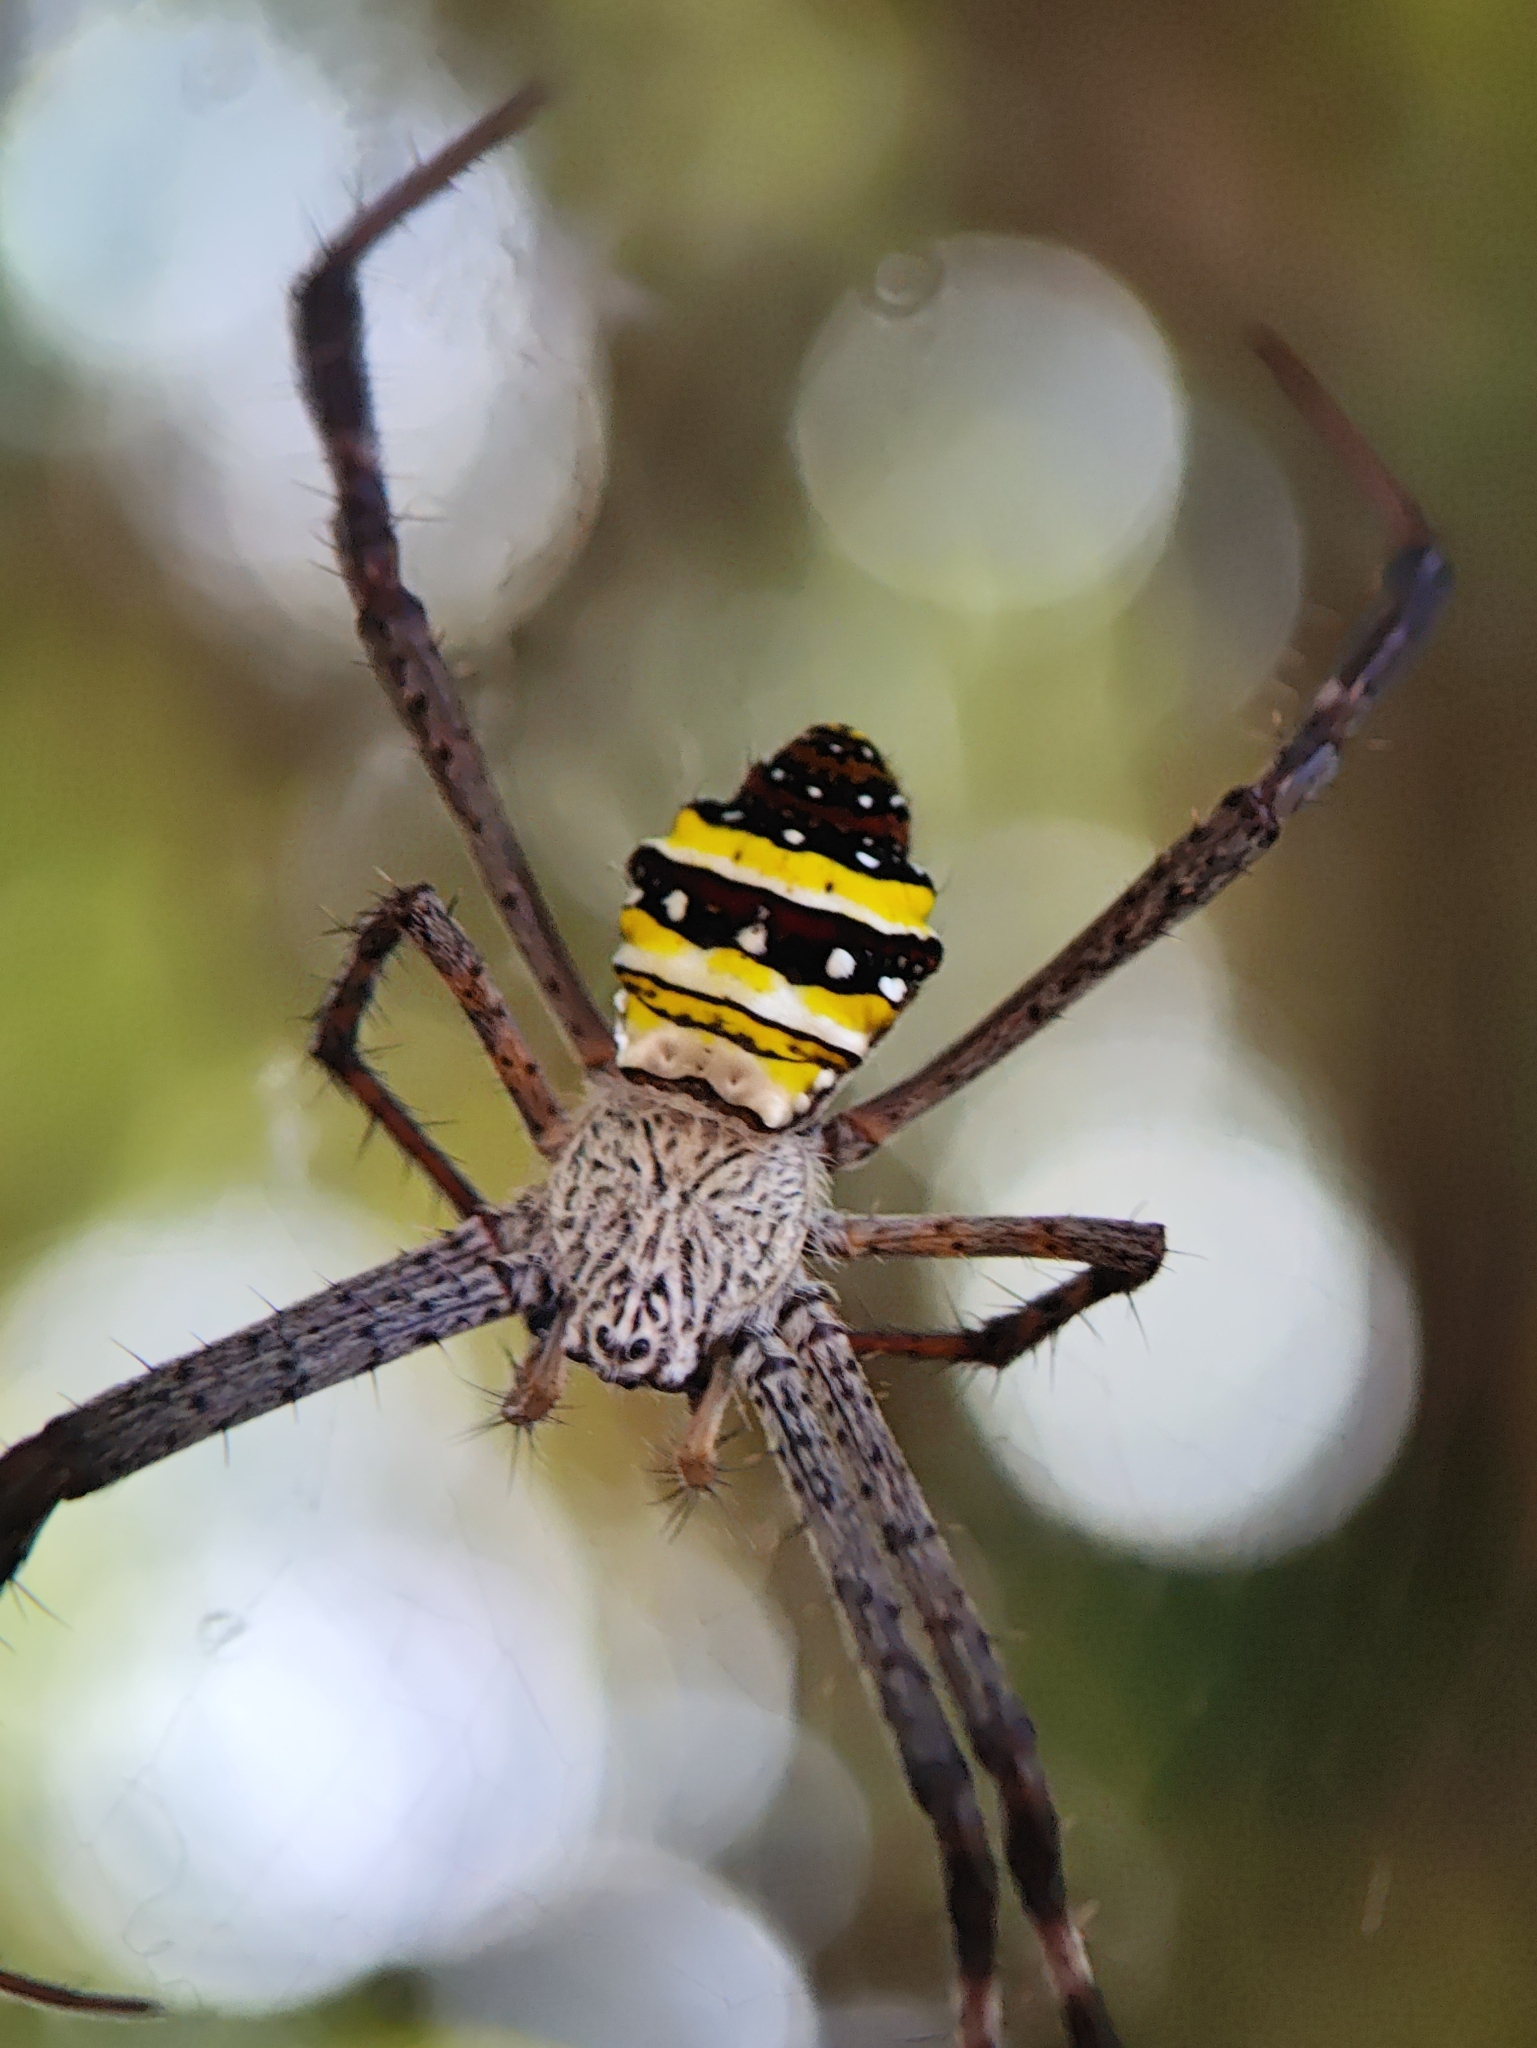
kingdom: Animalia
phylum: Arthropoda
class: Arachnida
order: Araneae
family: Araneidae
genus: Argiope
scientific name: Argiope pulchella
